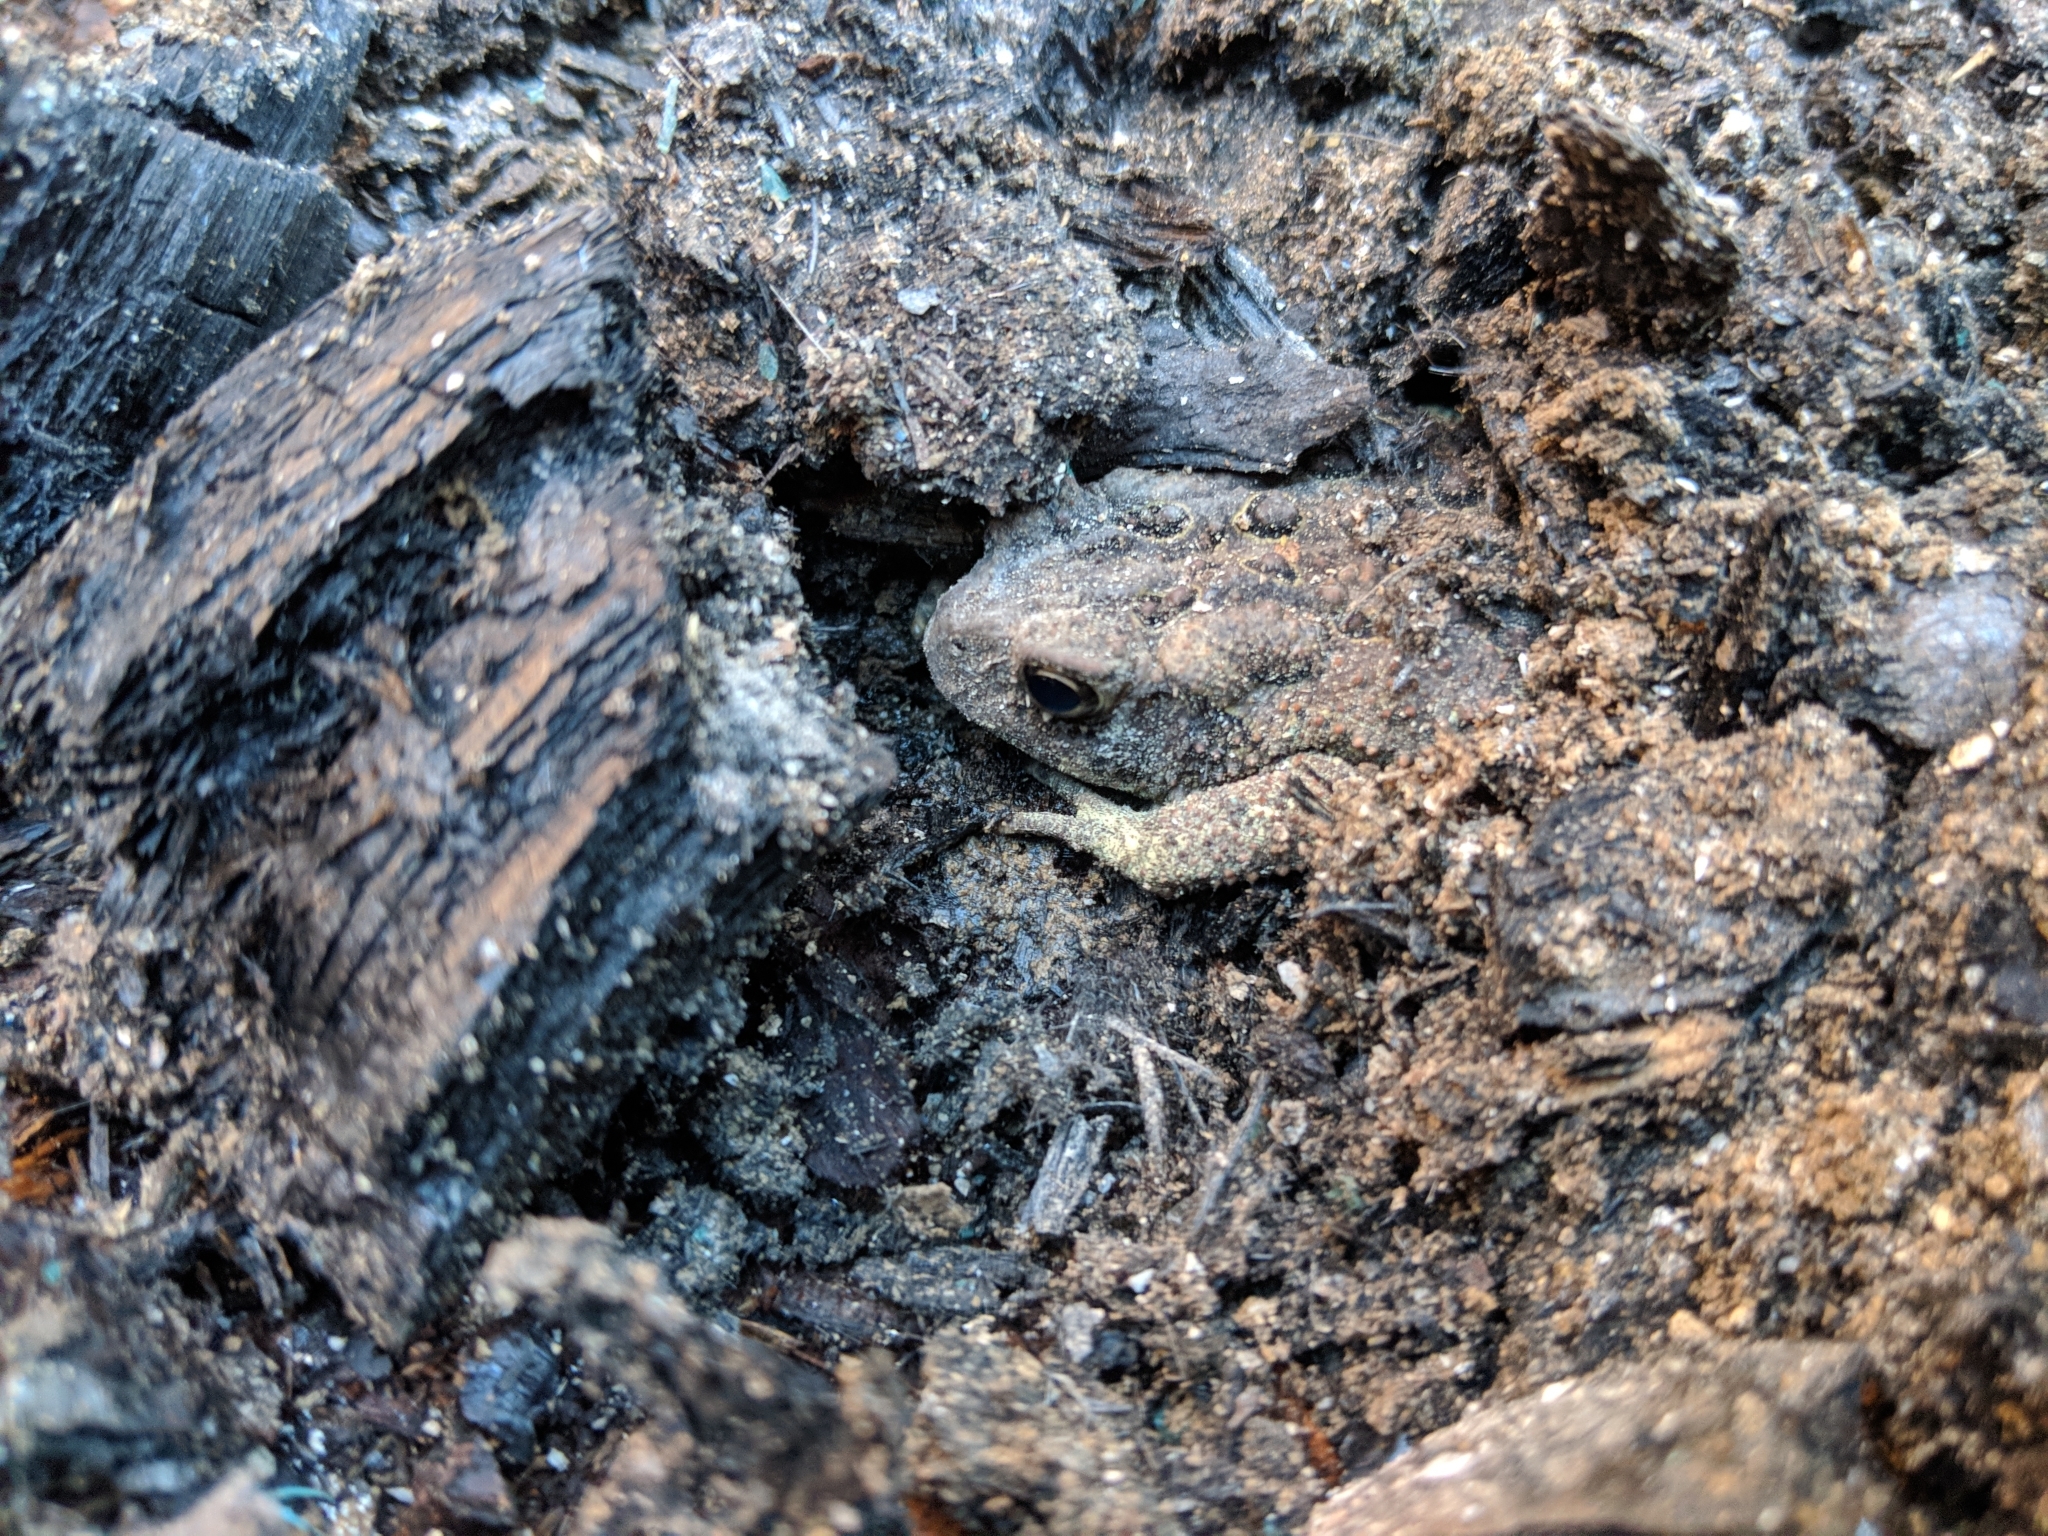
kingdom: Animalia
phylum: Chordata
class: Amphibia
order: Anura
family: Bufonidae
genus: Anaxyrus
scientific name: Anaxyrus americanus
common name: American toad
